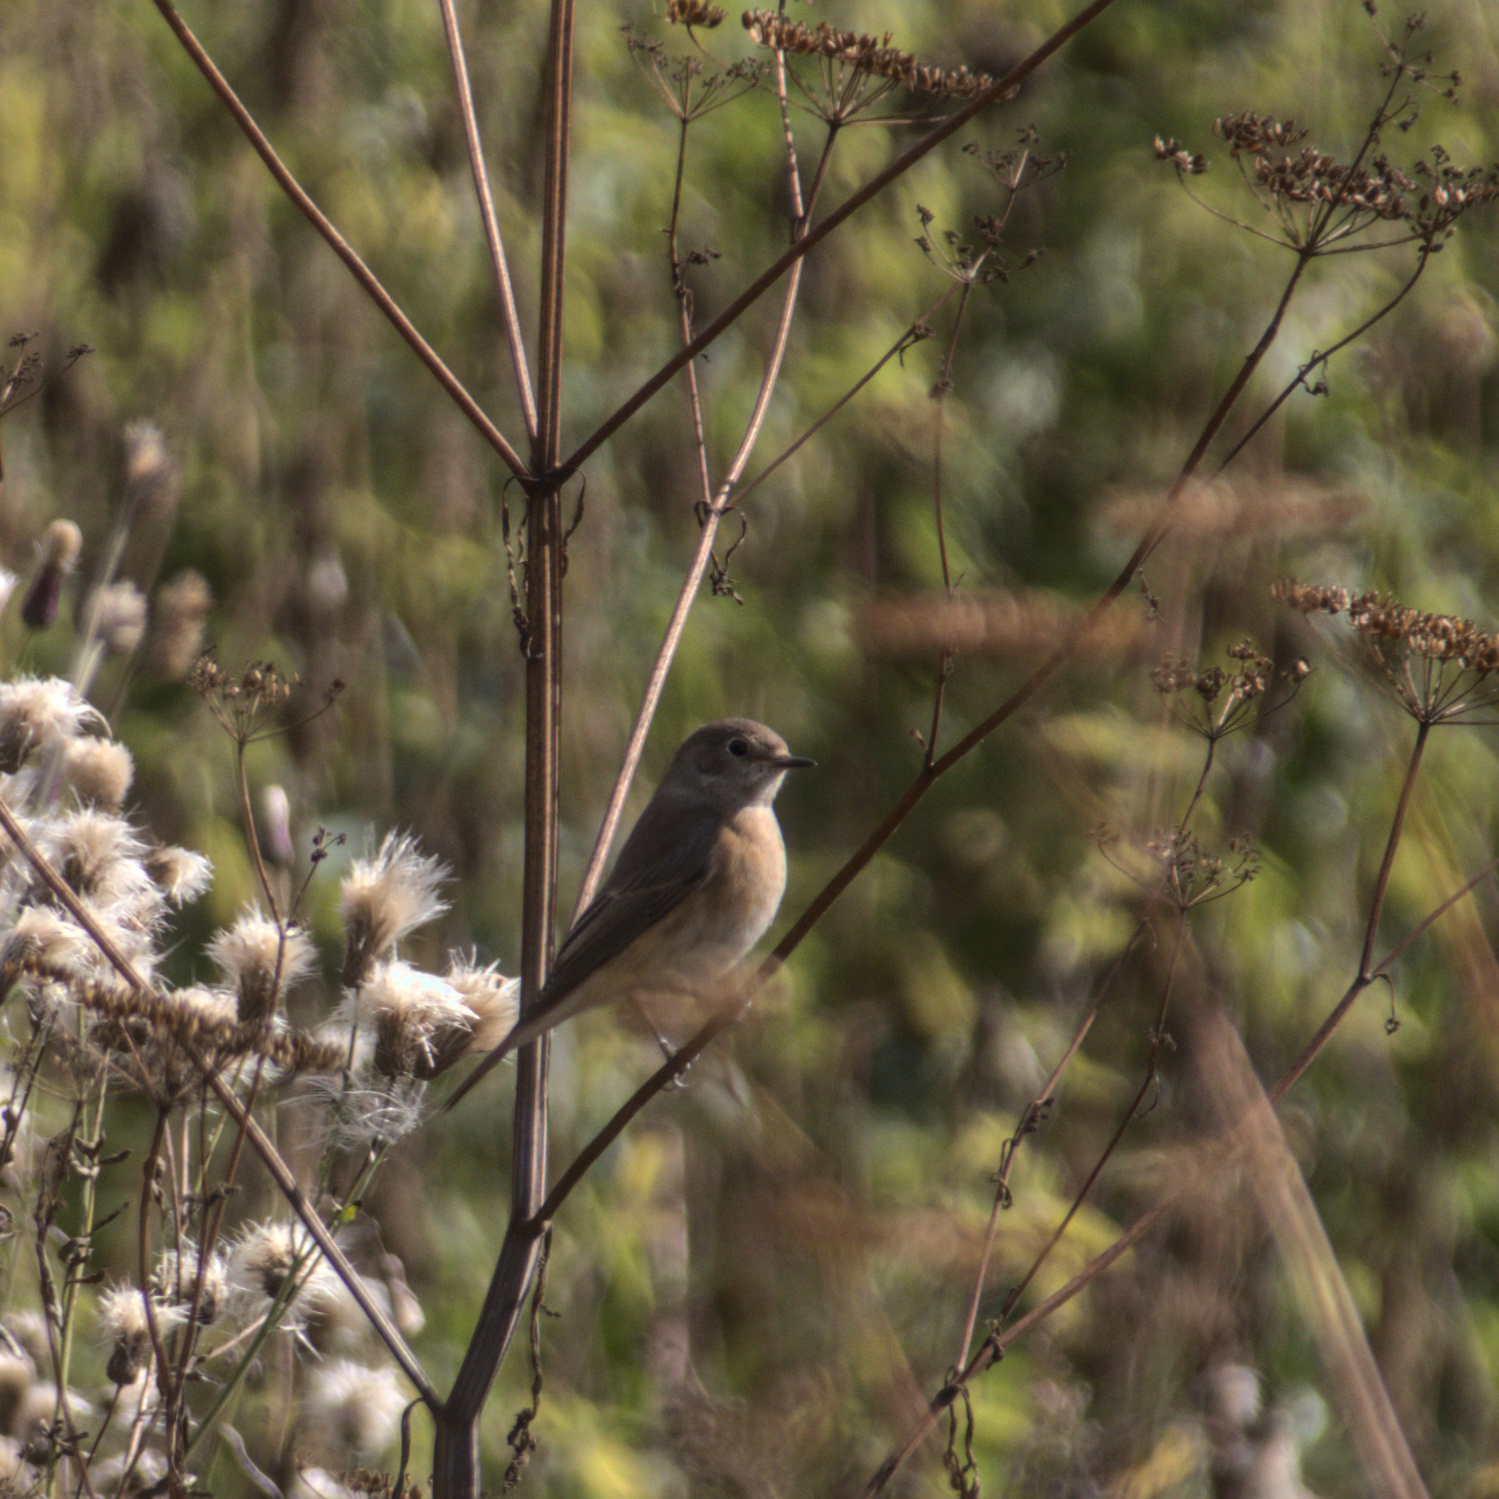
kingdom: Animalia
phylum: Chordata
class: Aves
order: Passeriformes
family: Muscicapidae
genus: Phoenicurus
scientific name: Phoenicurus phoenicurus
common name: Common redstart
